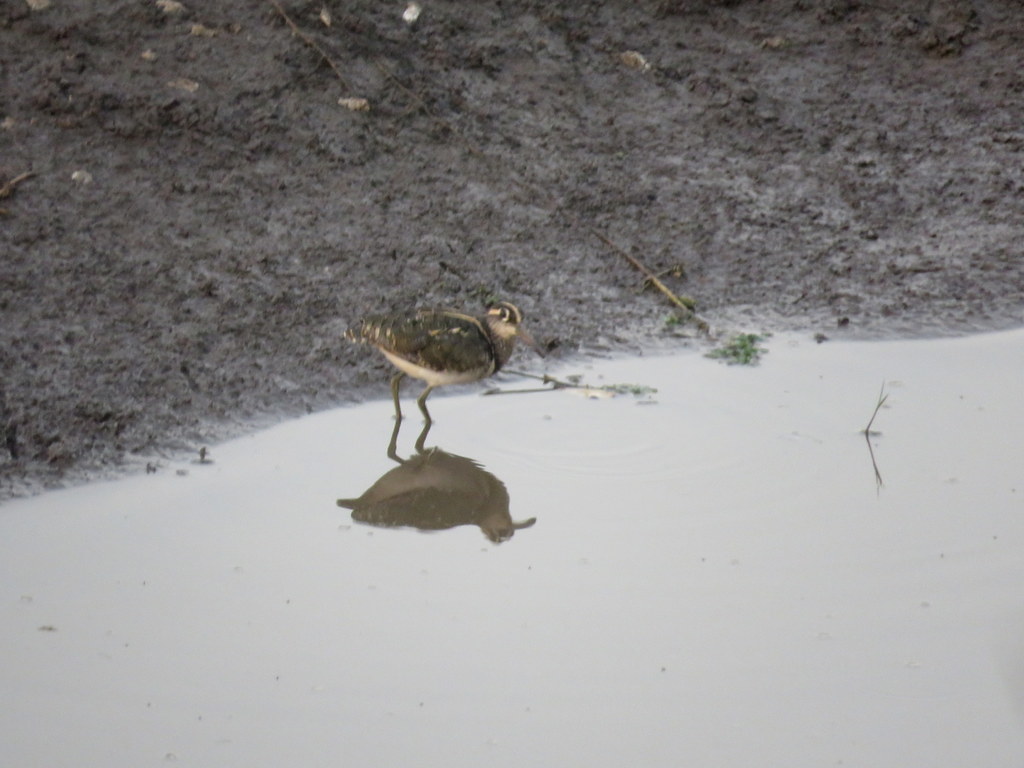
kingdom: Animalia
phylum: Chordata
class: Aves
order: Charadriiformes
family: Rostratulidae
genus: Rostratula
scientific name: Rostratula benghalensis
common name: Greater painted-snipe
